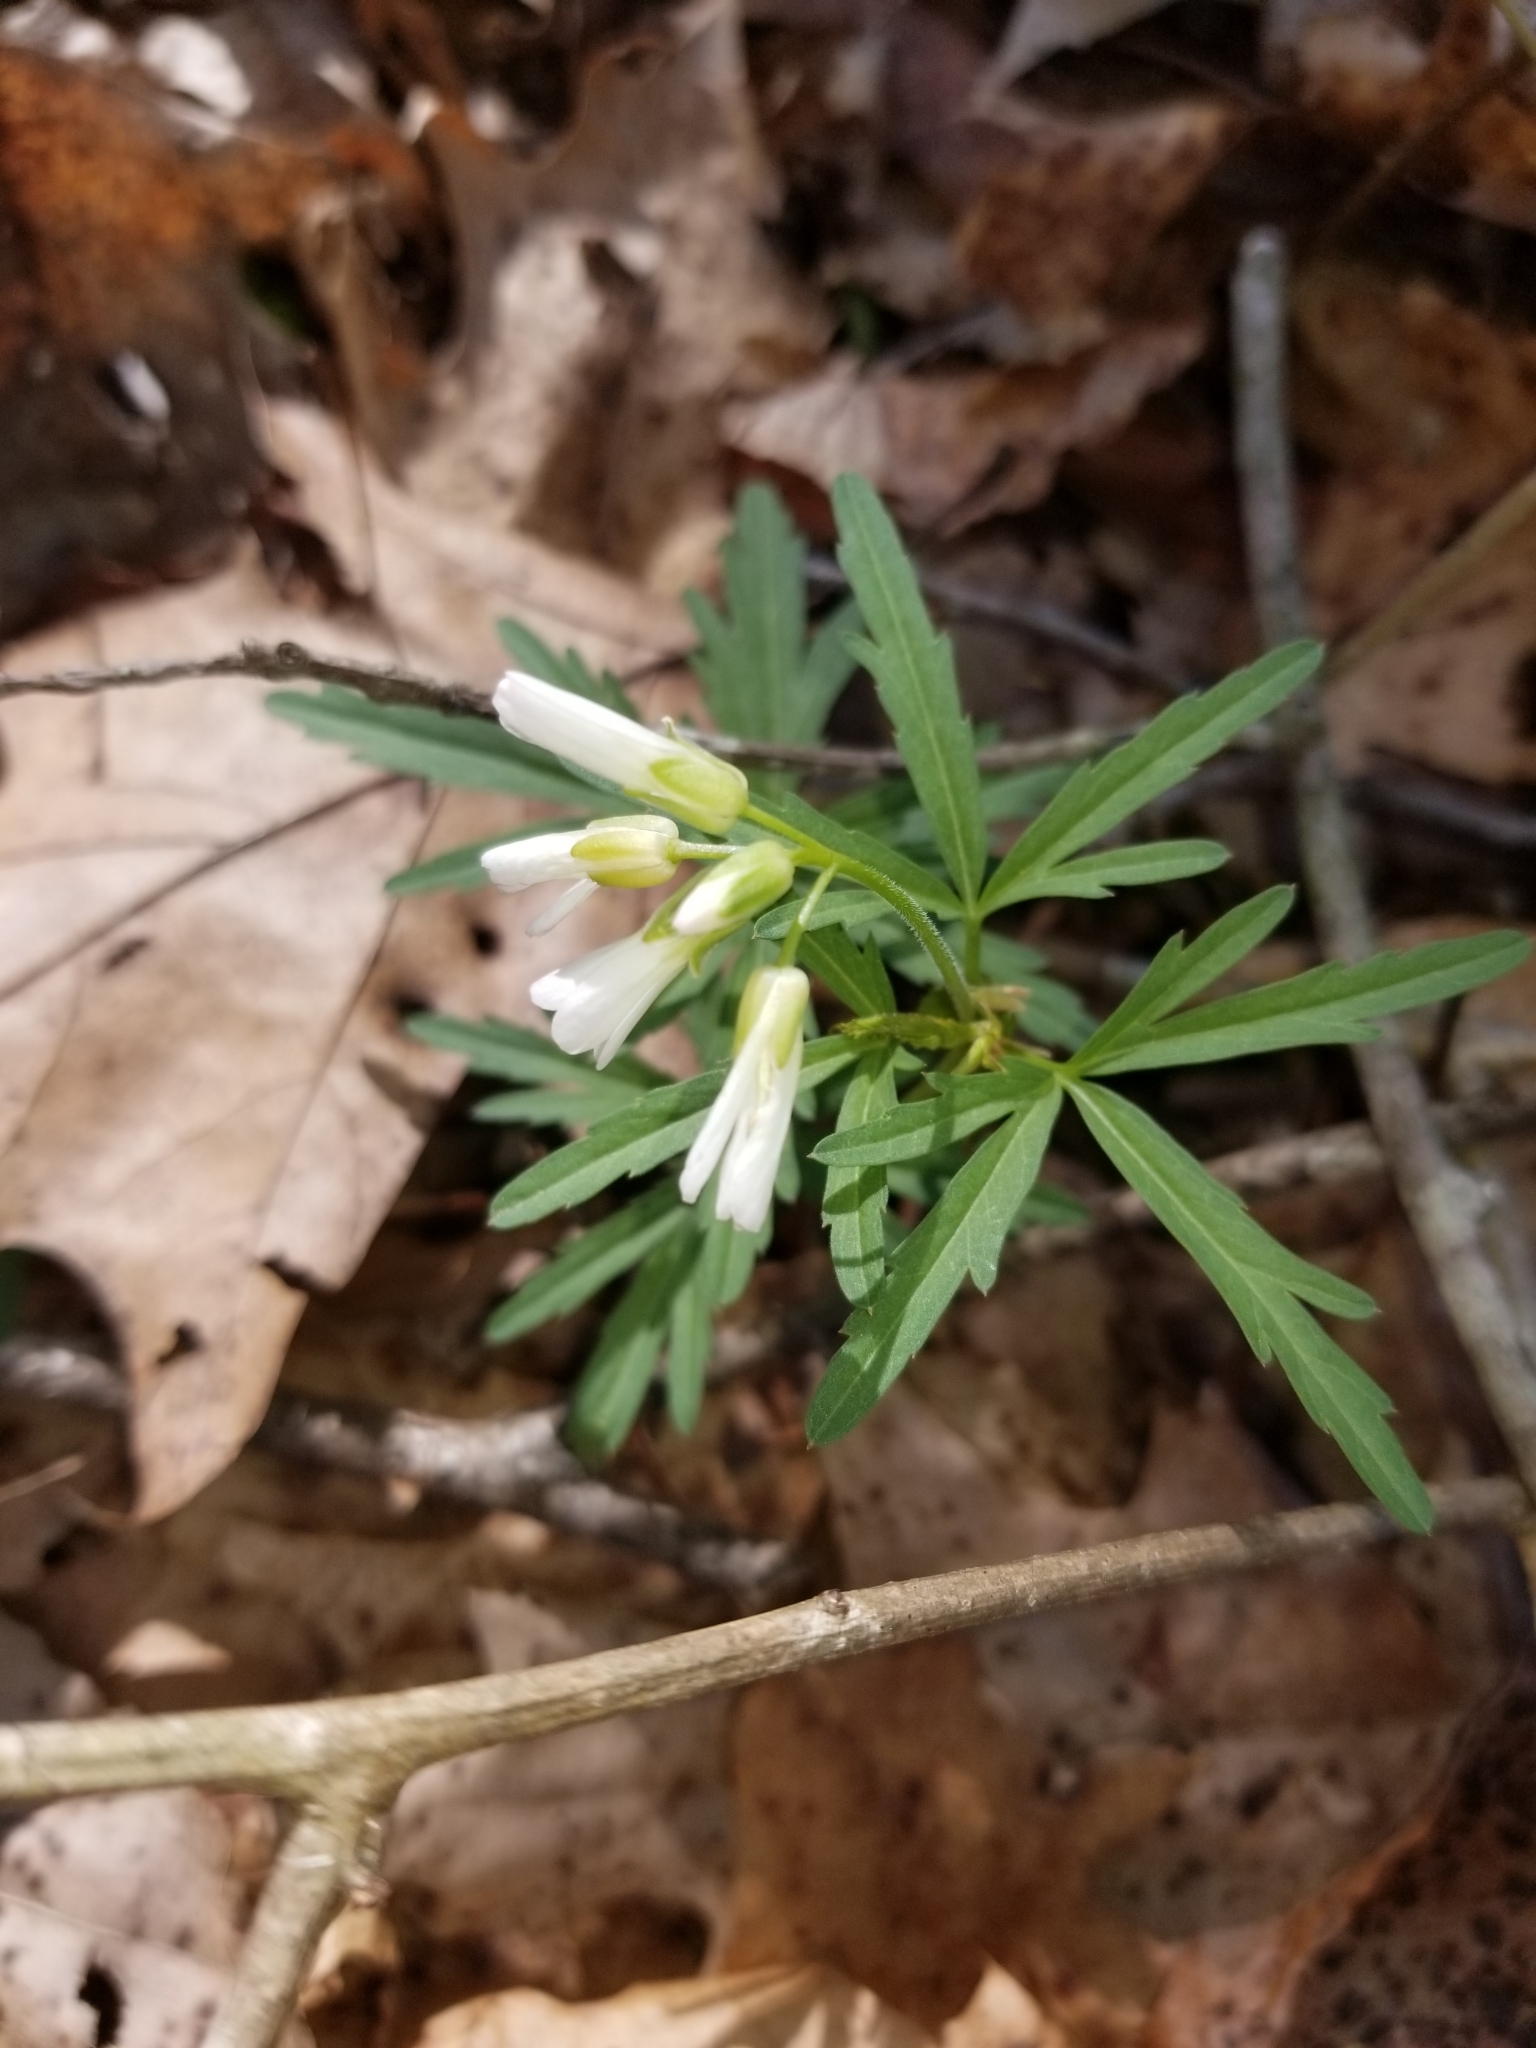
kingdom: Plantae
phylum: Tracheophyta
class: Magnoliopsida
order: Brassicales
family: Brassicaceae
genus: Cardamine
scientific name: Cardamine concatenata
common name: Cut-leaf toothcup
